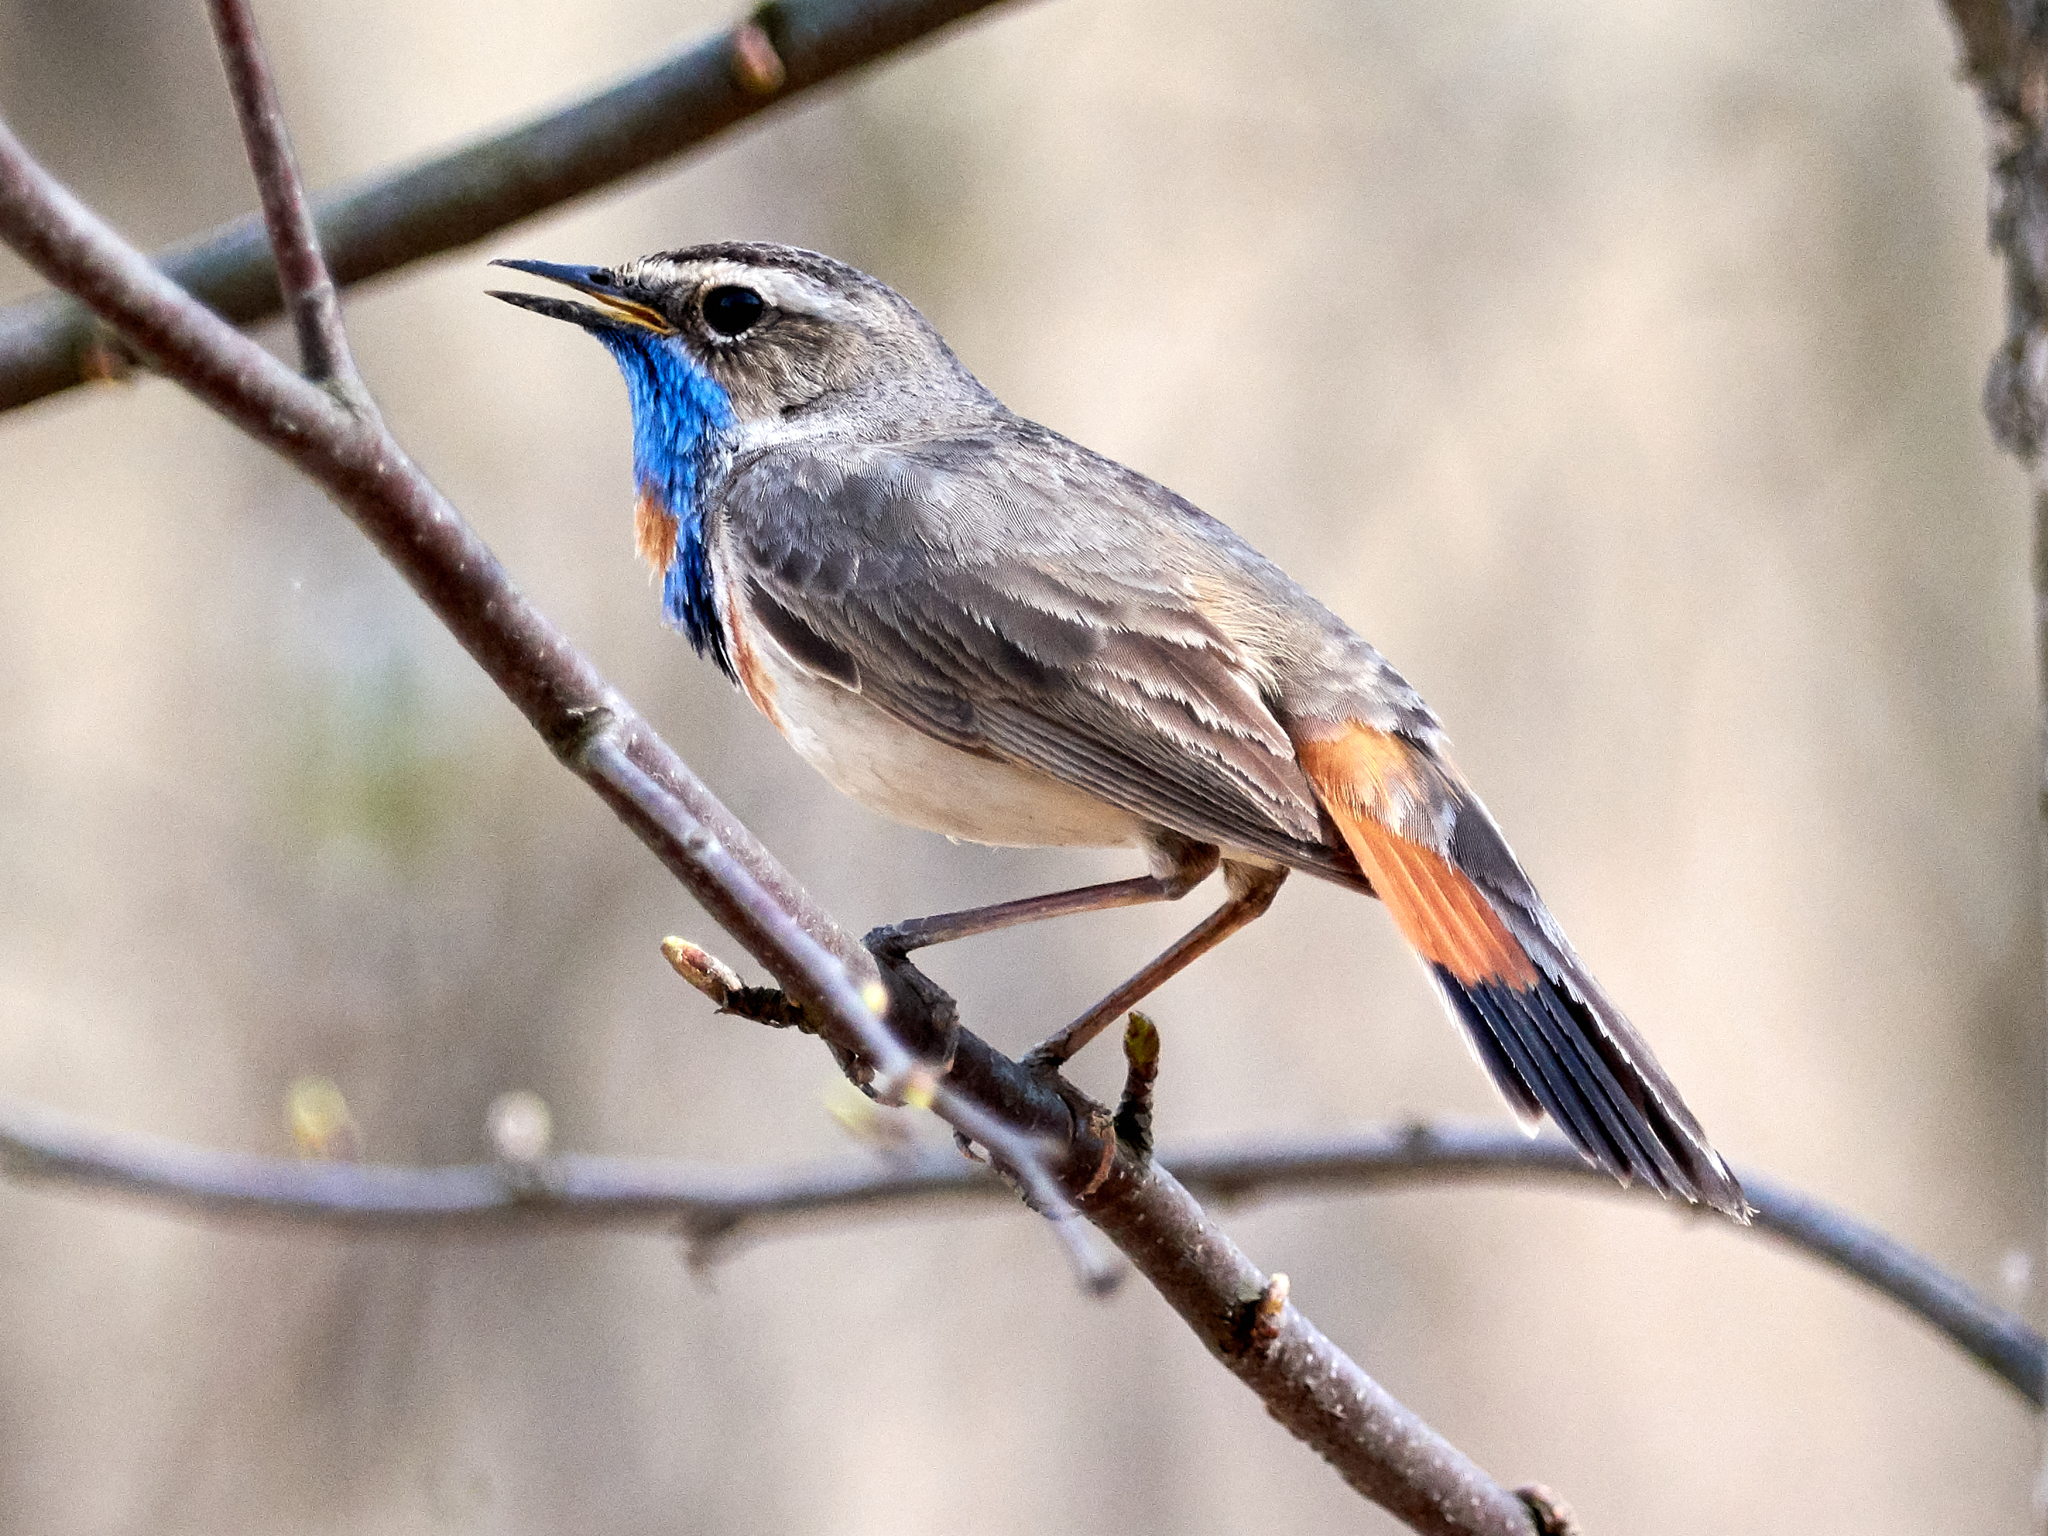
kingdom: Animalia
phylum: Chordata
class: Aves
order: Passeriformes
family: Muscicapidae
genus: Luscinia
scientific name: Luscinia svecica
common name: Bluethroat
